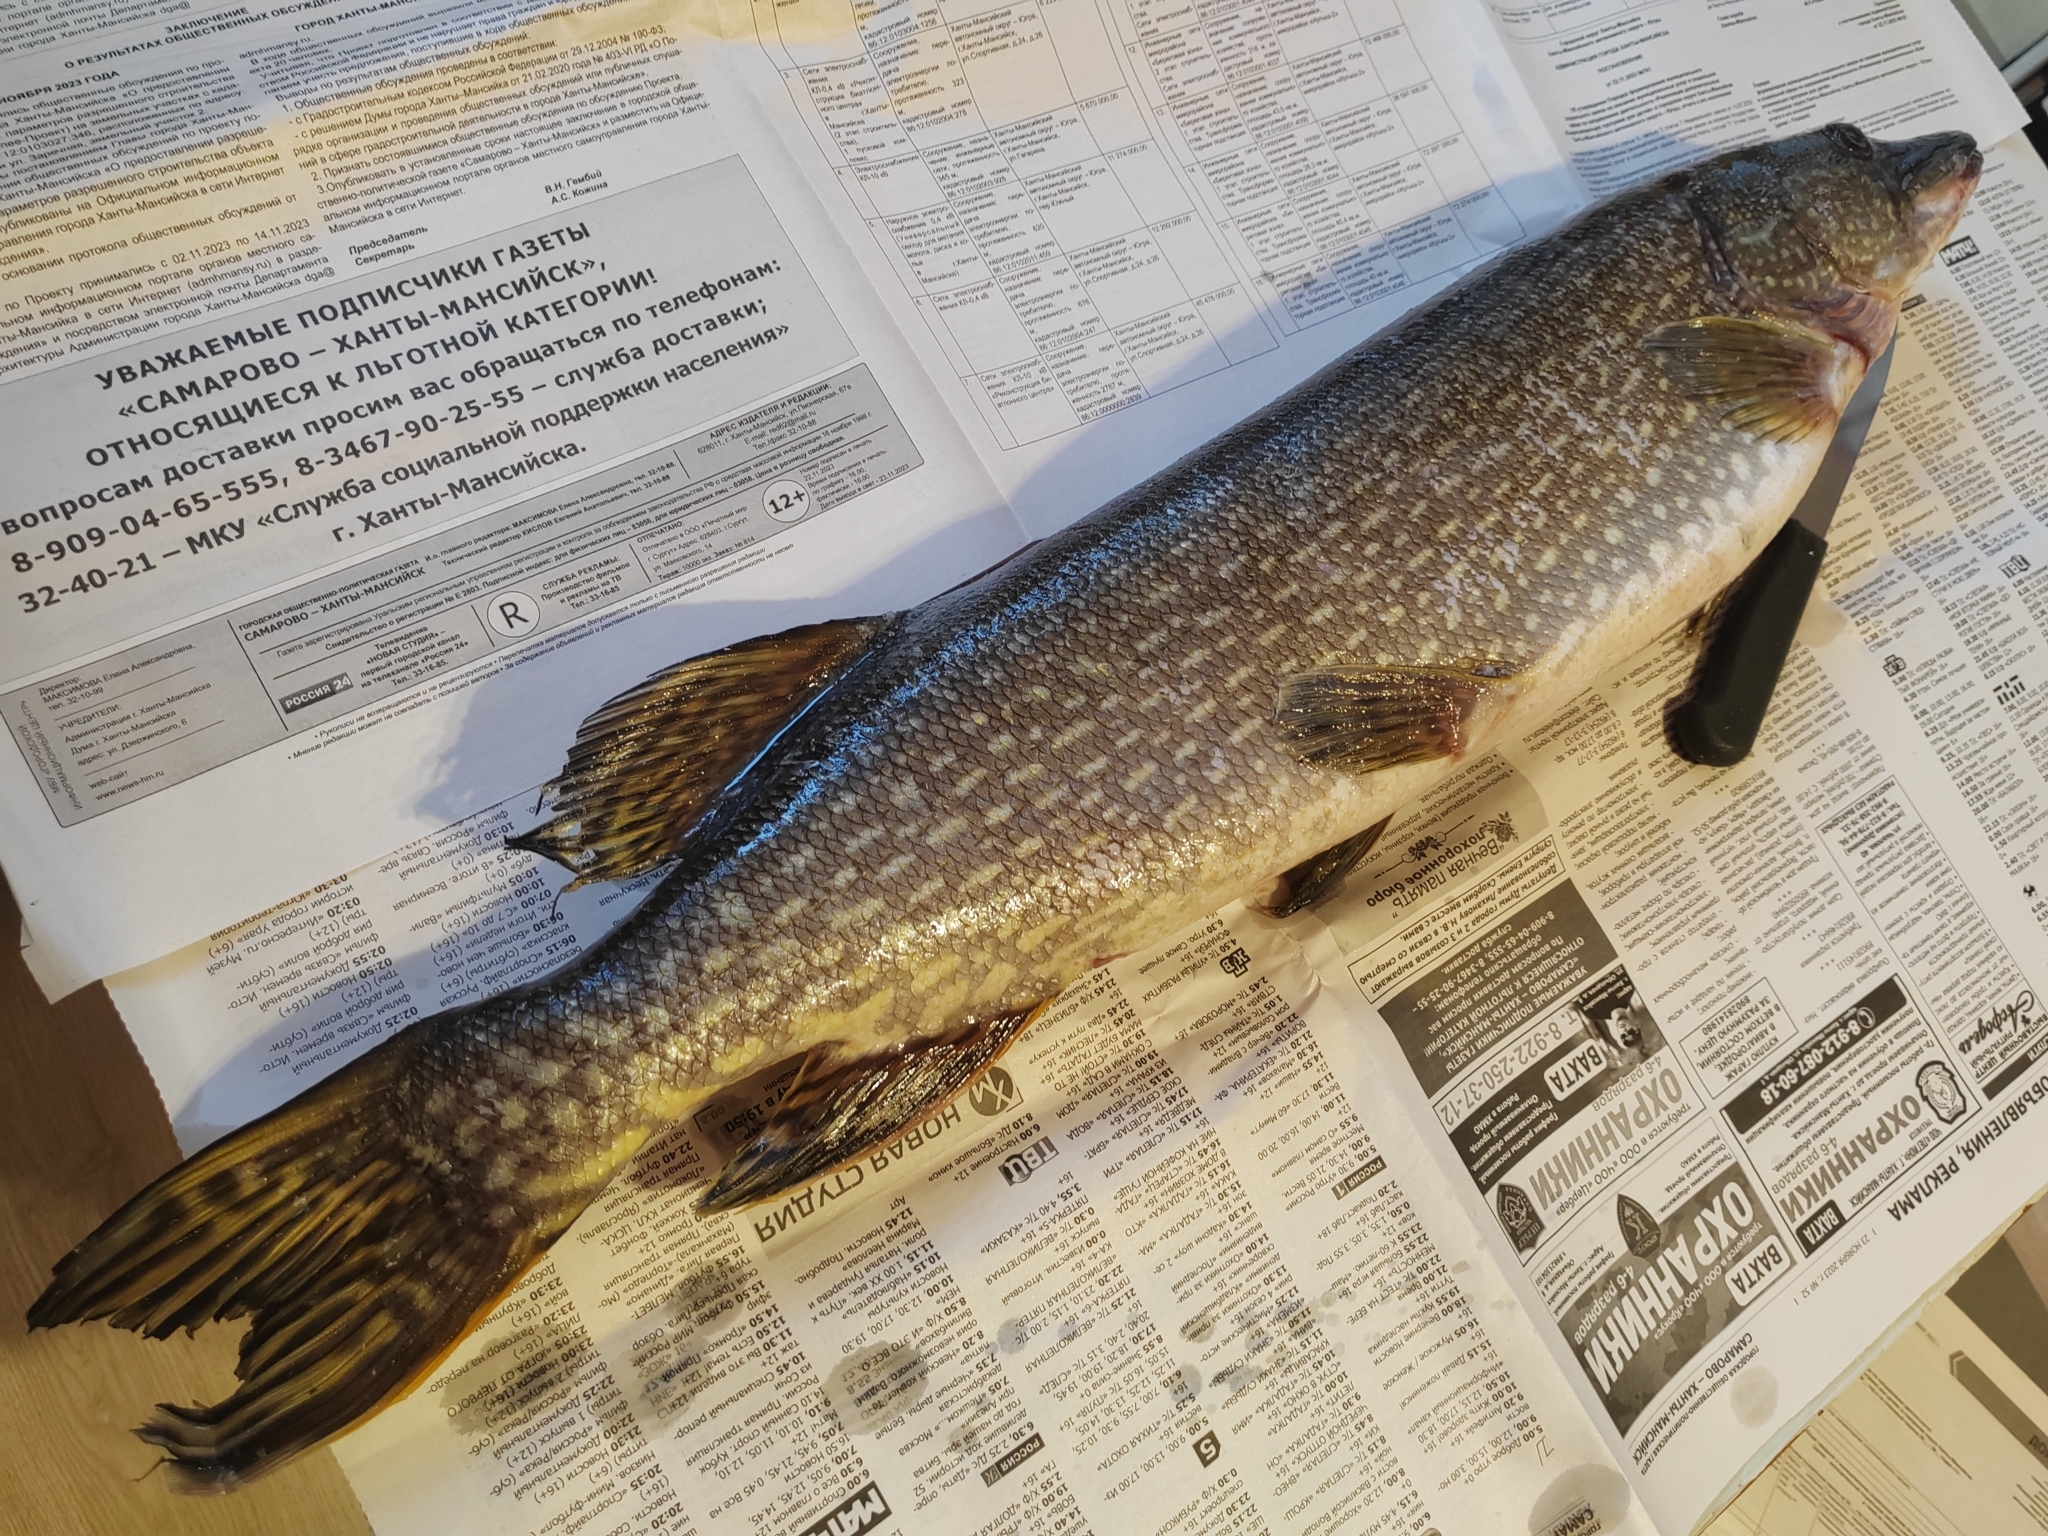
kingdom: Animalia
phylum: Chordata
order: Esociformes
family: Esocidae
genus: Esox
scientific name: Esox lucius
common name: Northern pike
